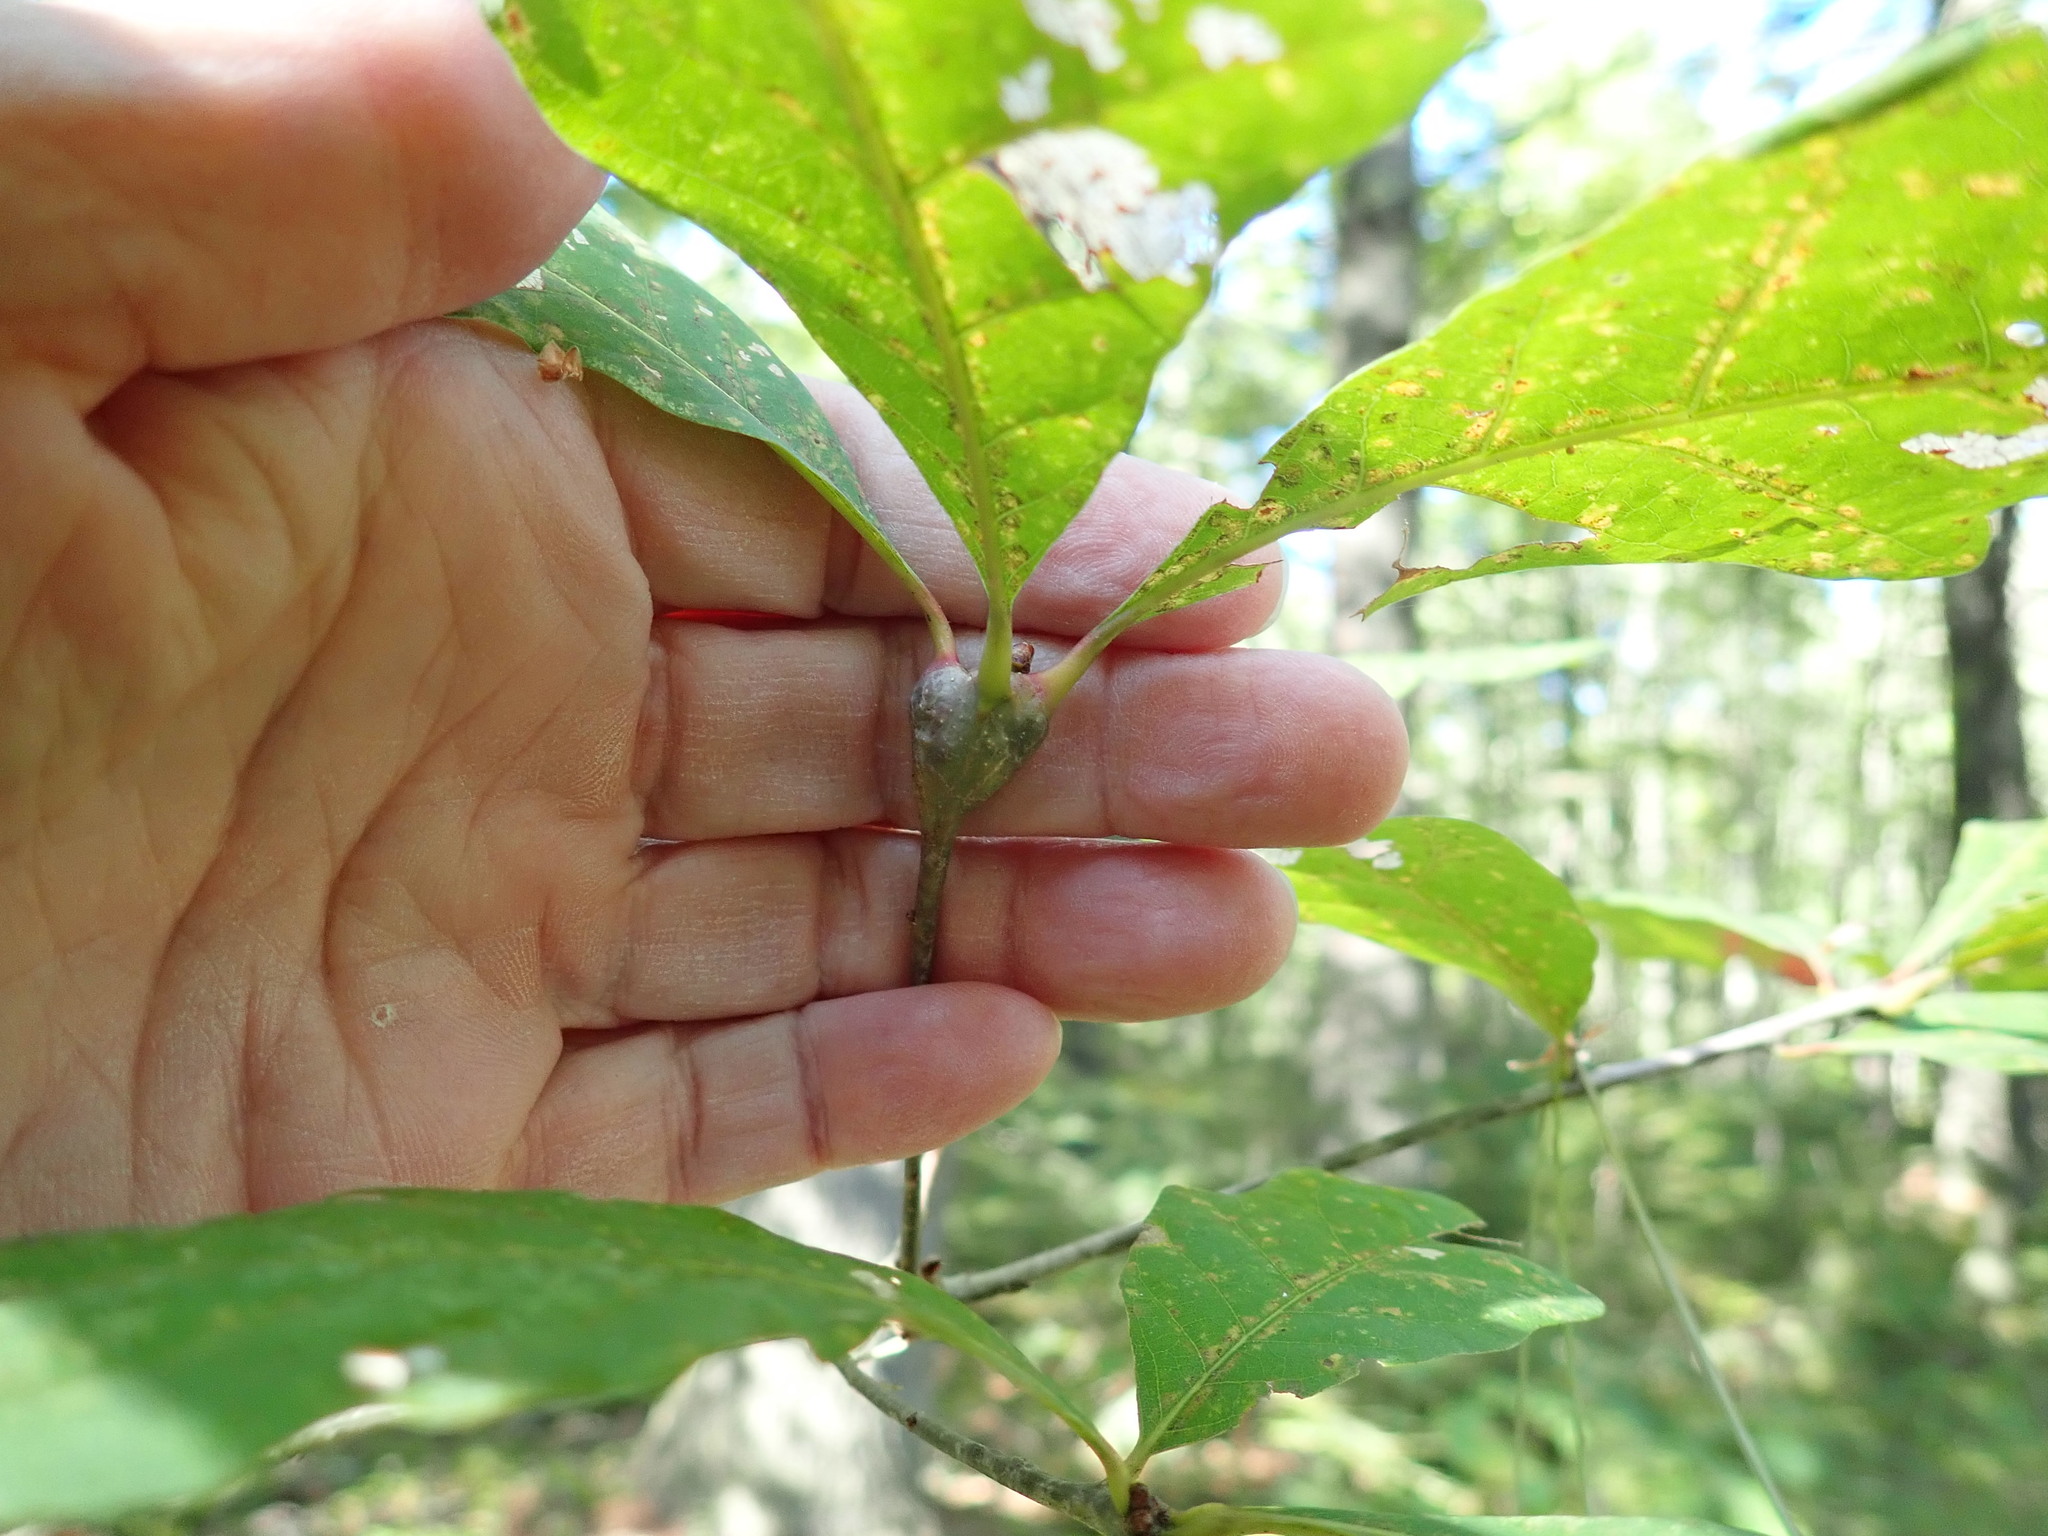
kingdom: Animalia
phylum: Arthropoda
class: Insecta
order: Hymenoptera
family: Cynipidae
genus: Callirhytis
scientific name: Callirhytis clavula
